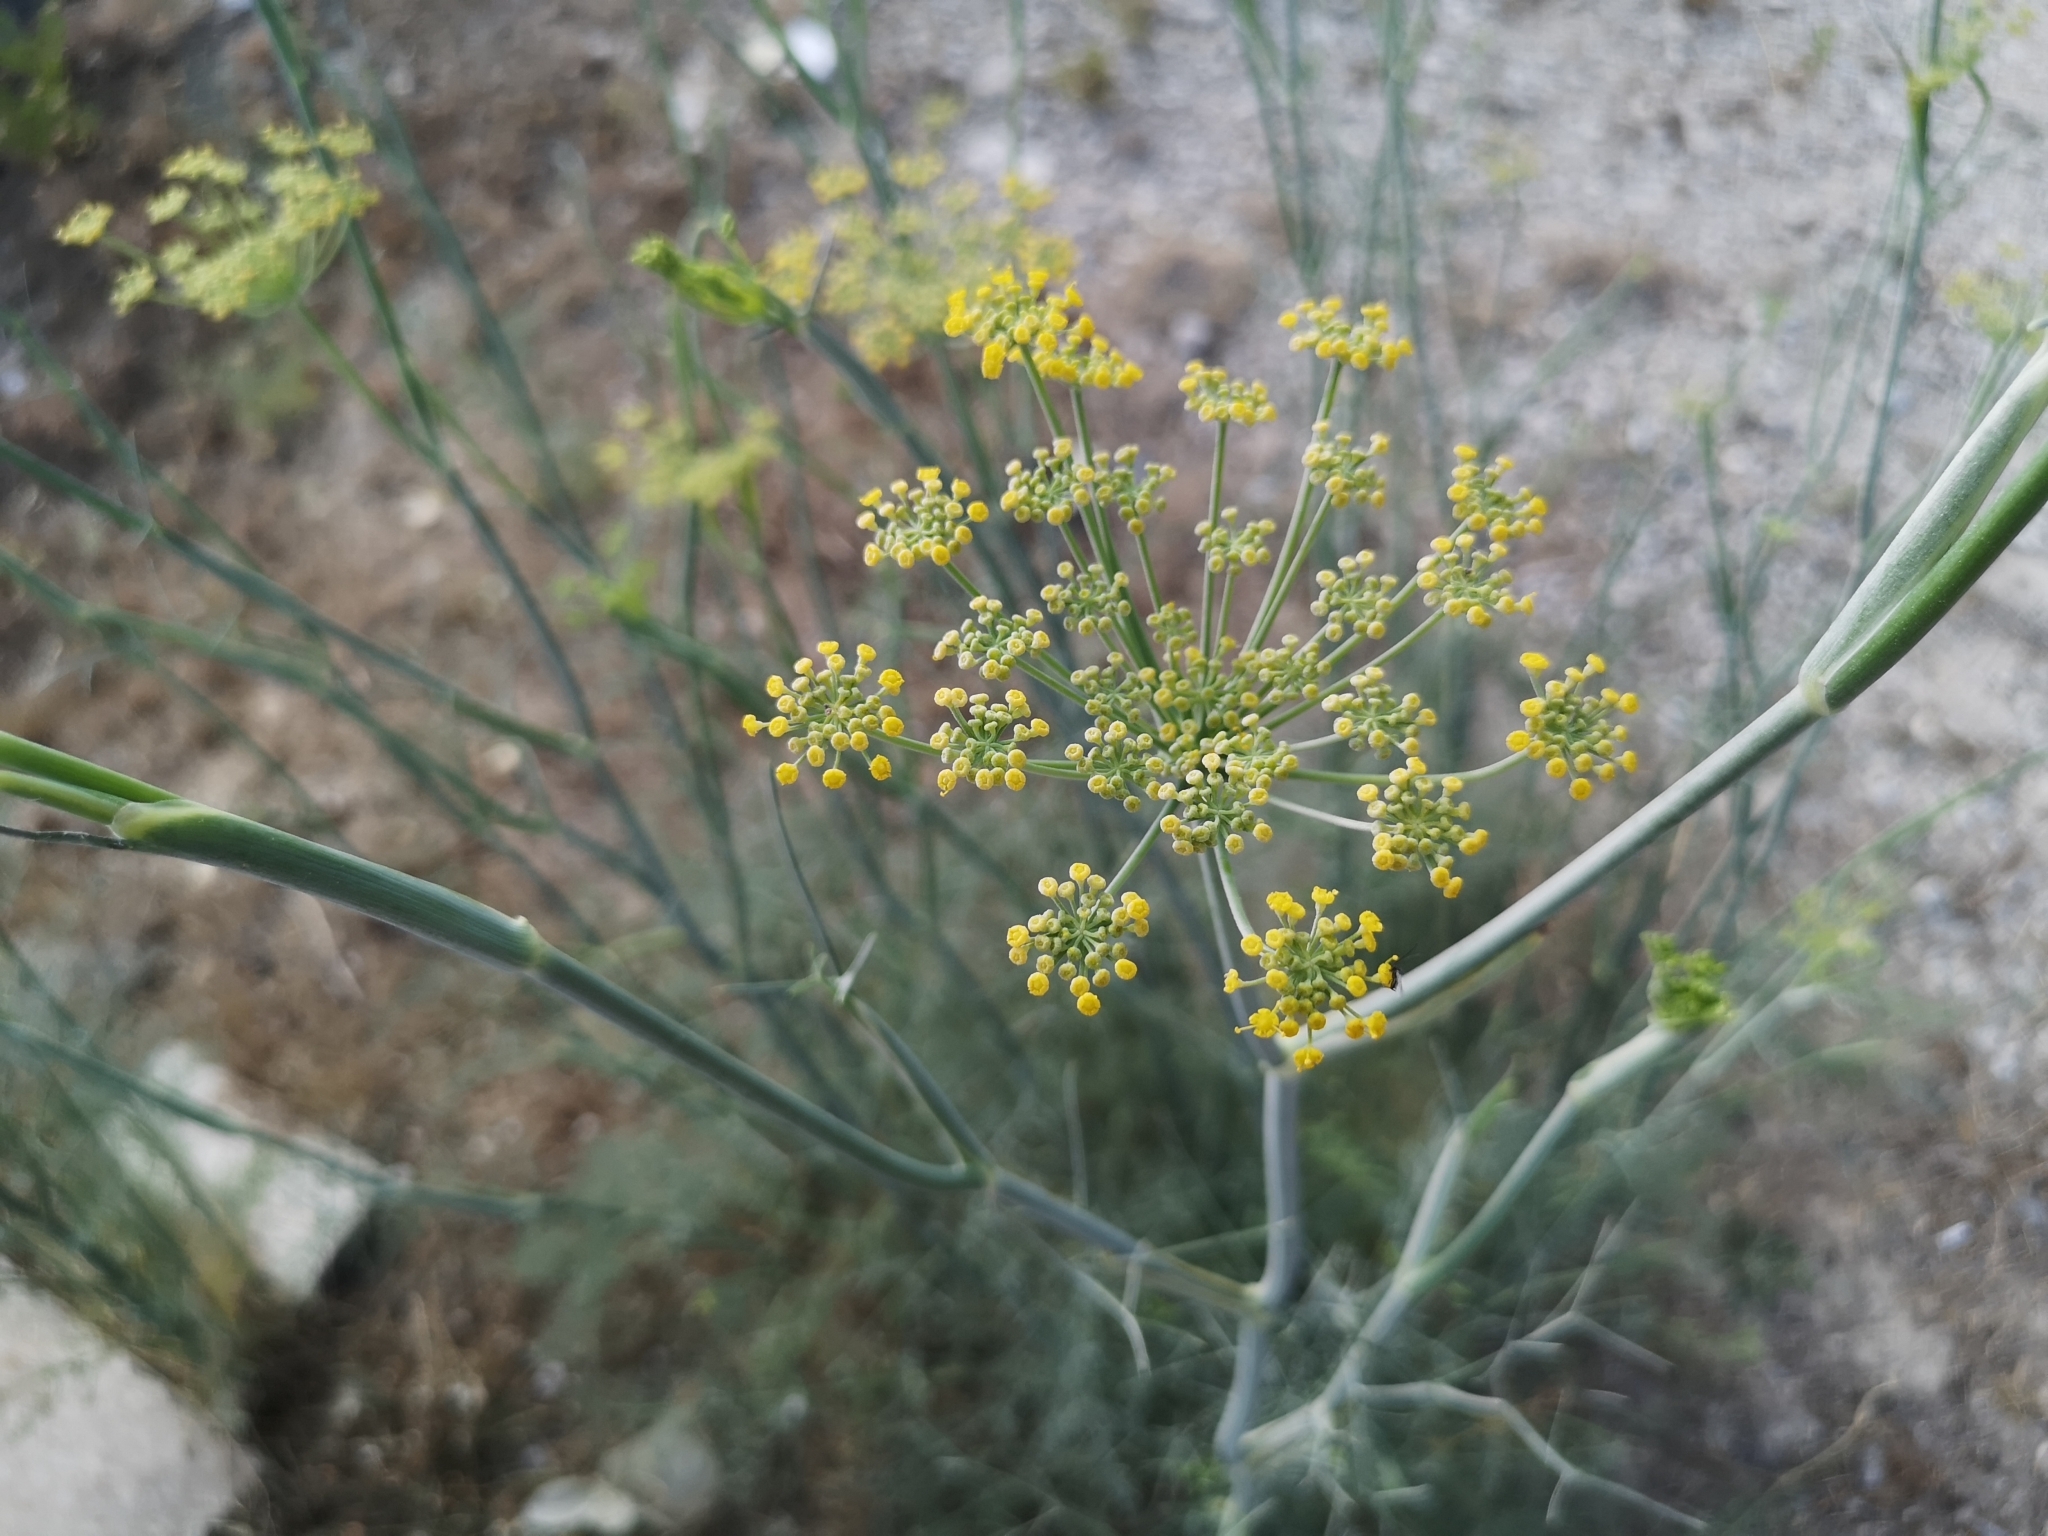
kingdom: Plantae
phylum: Tracheophyta
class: Magnoliopsida
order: Apiales
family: Apiaceae
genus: Foeniculum
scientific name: Foeniculum vulgare
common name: Fennel
